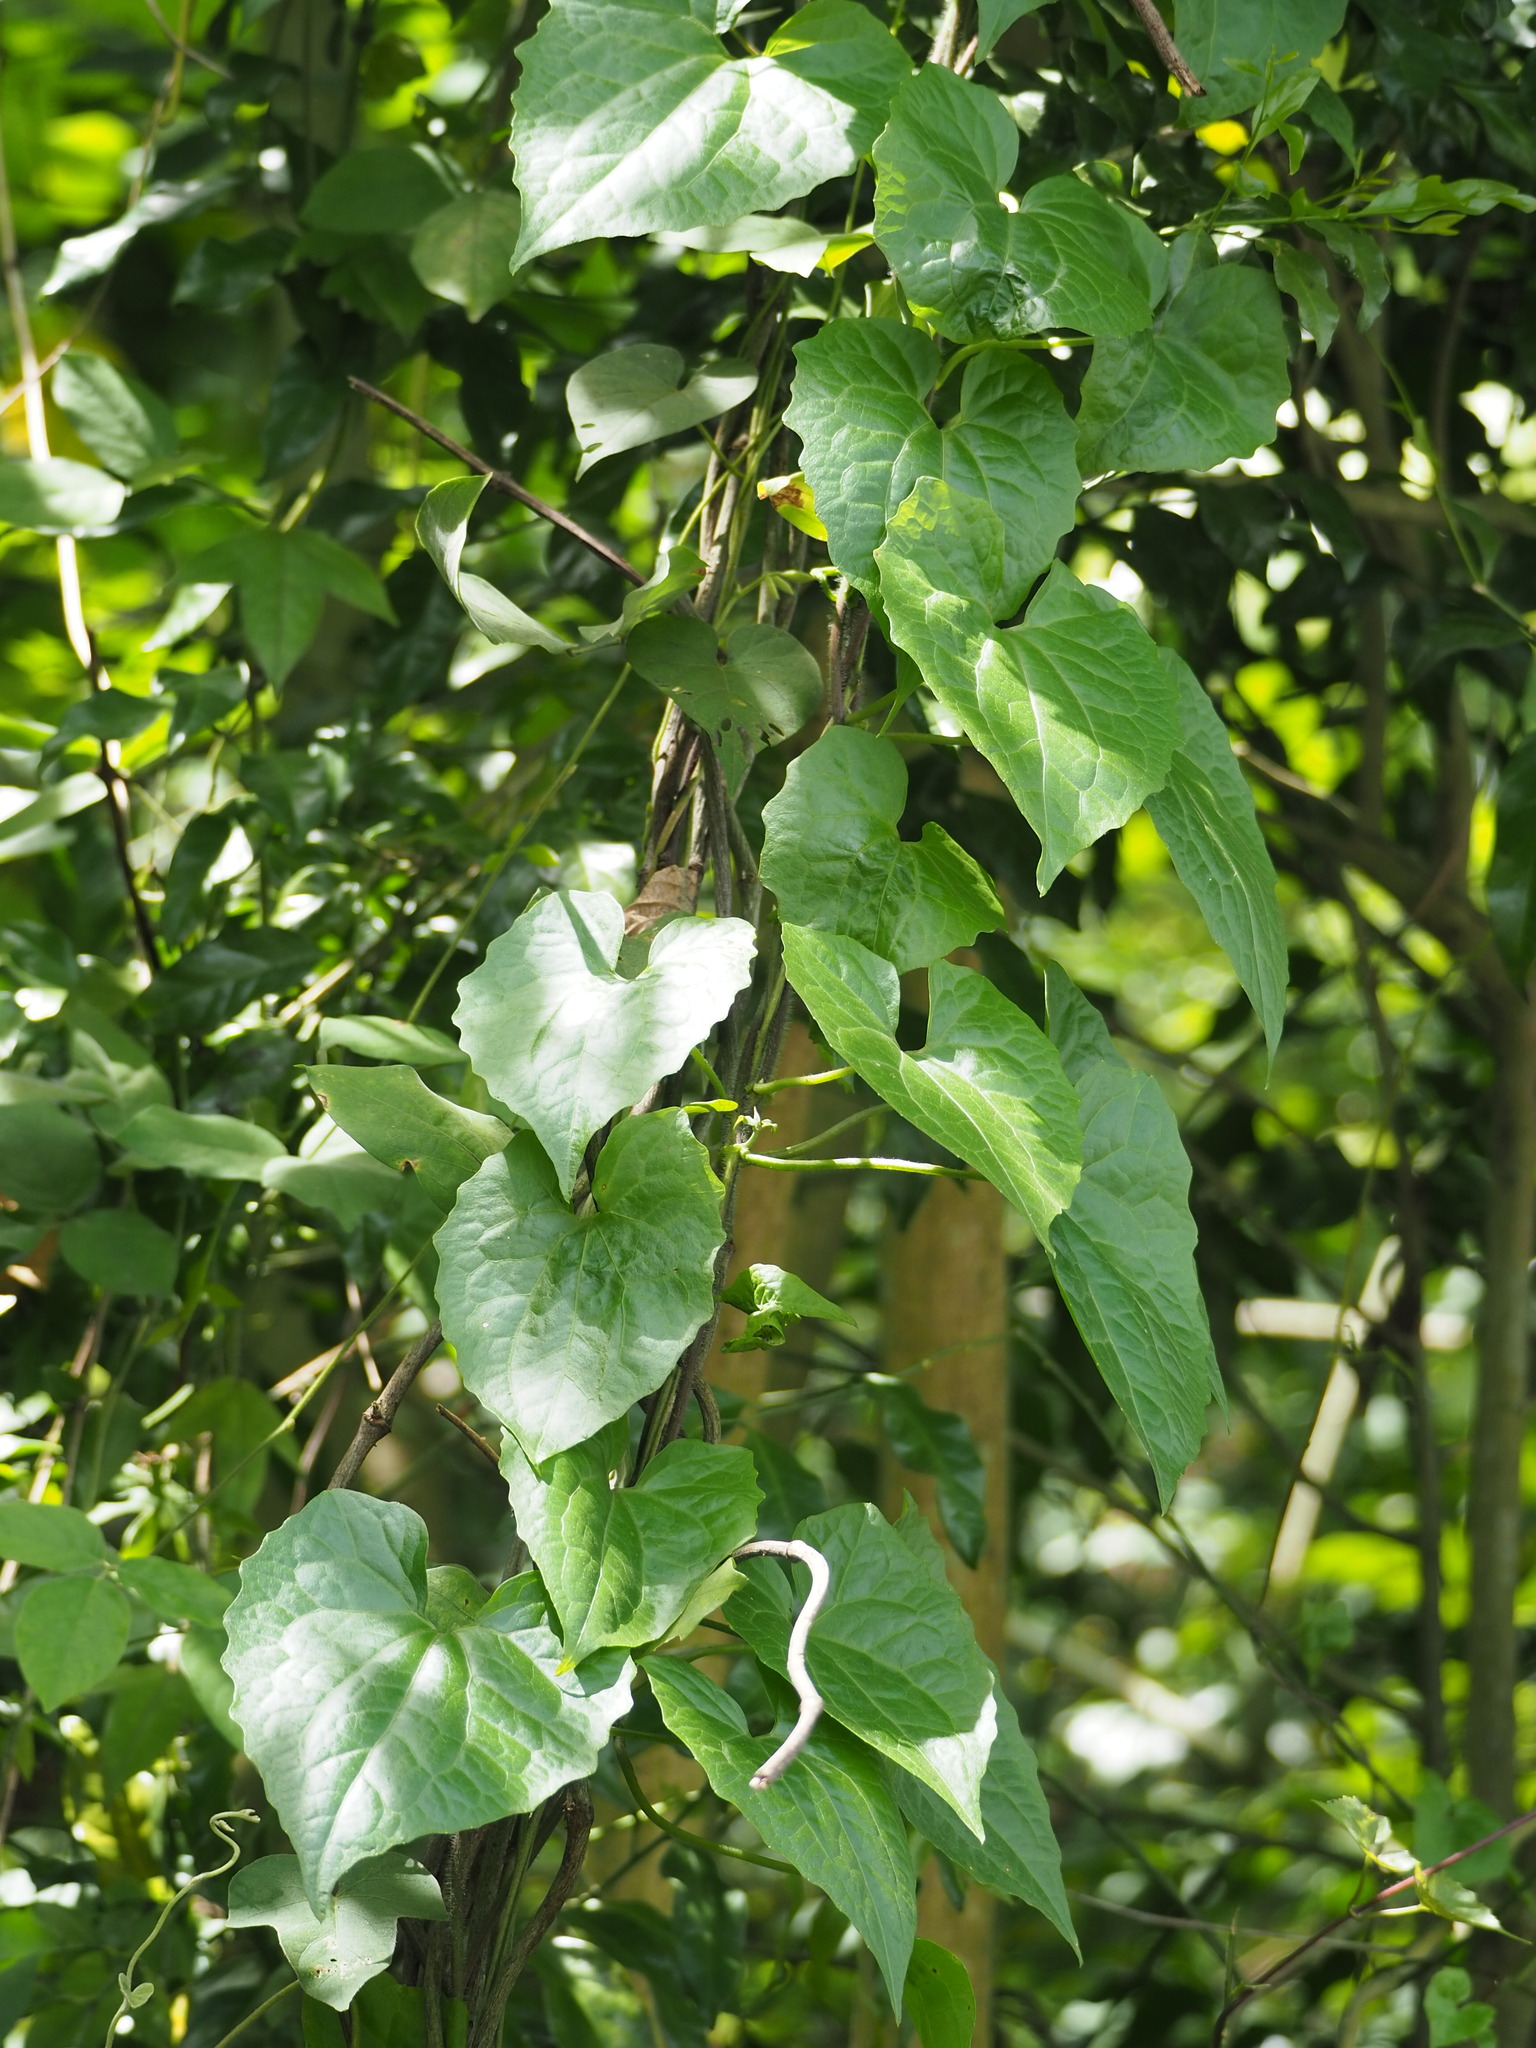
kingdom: Plantae
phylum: Tracheophyta
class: Magnoliopsida
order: Asterales
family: Asteraceae
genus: Mikania
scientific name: Mikania micrantha
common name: Mile-a-minute
